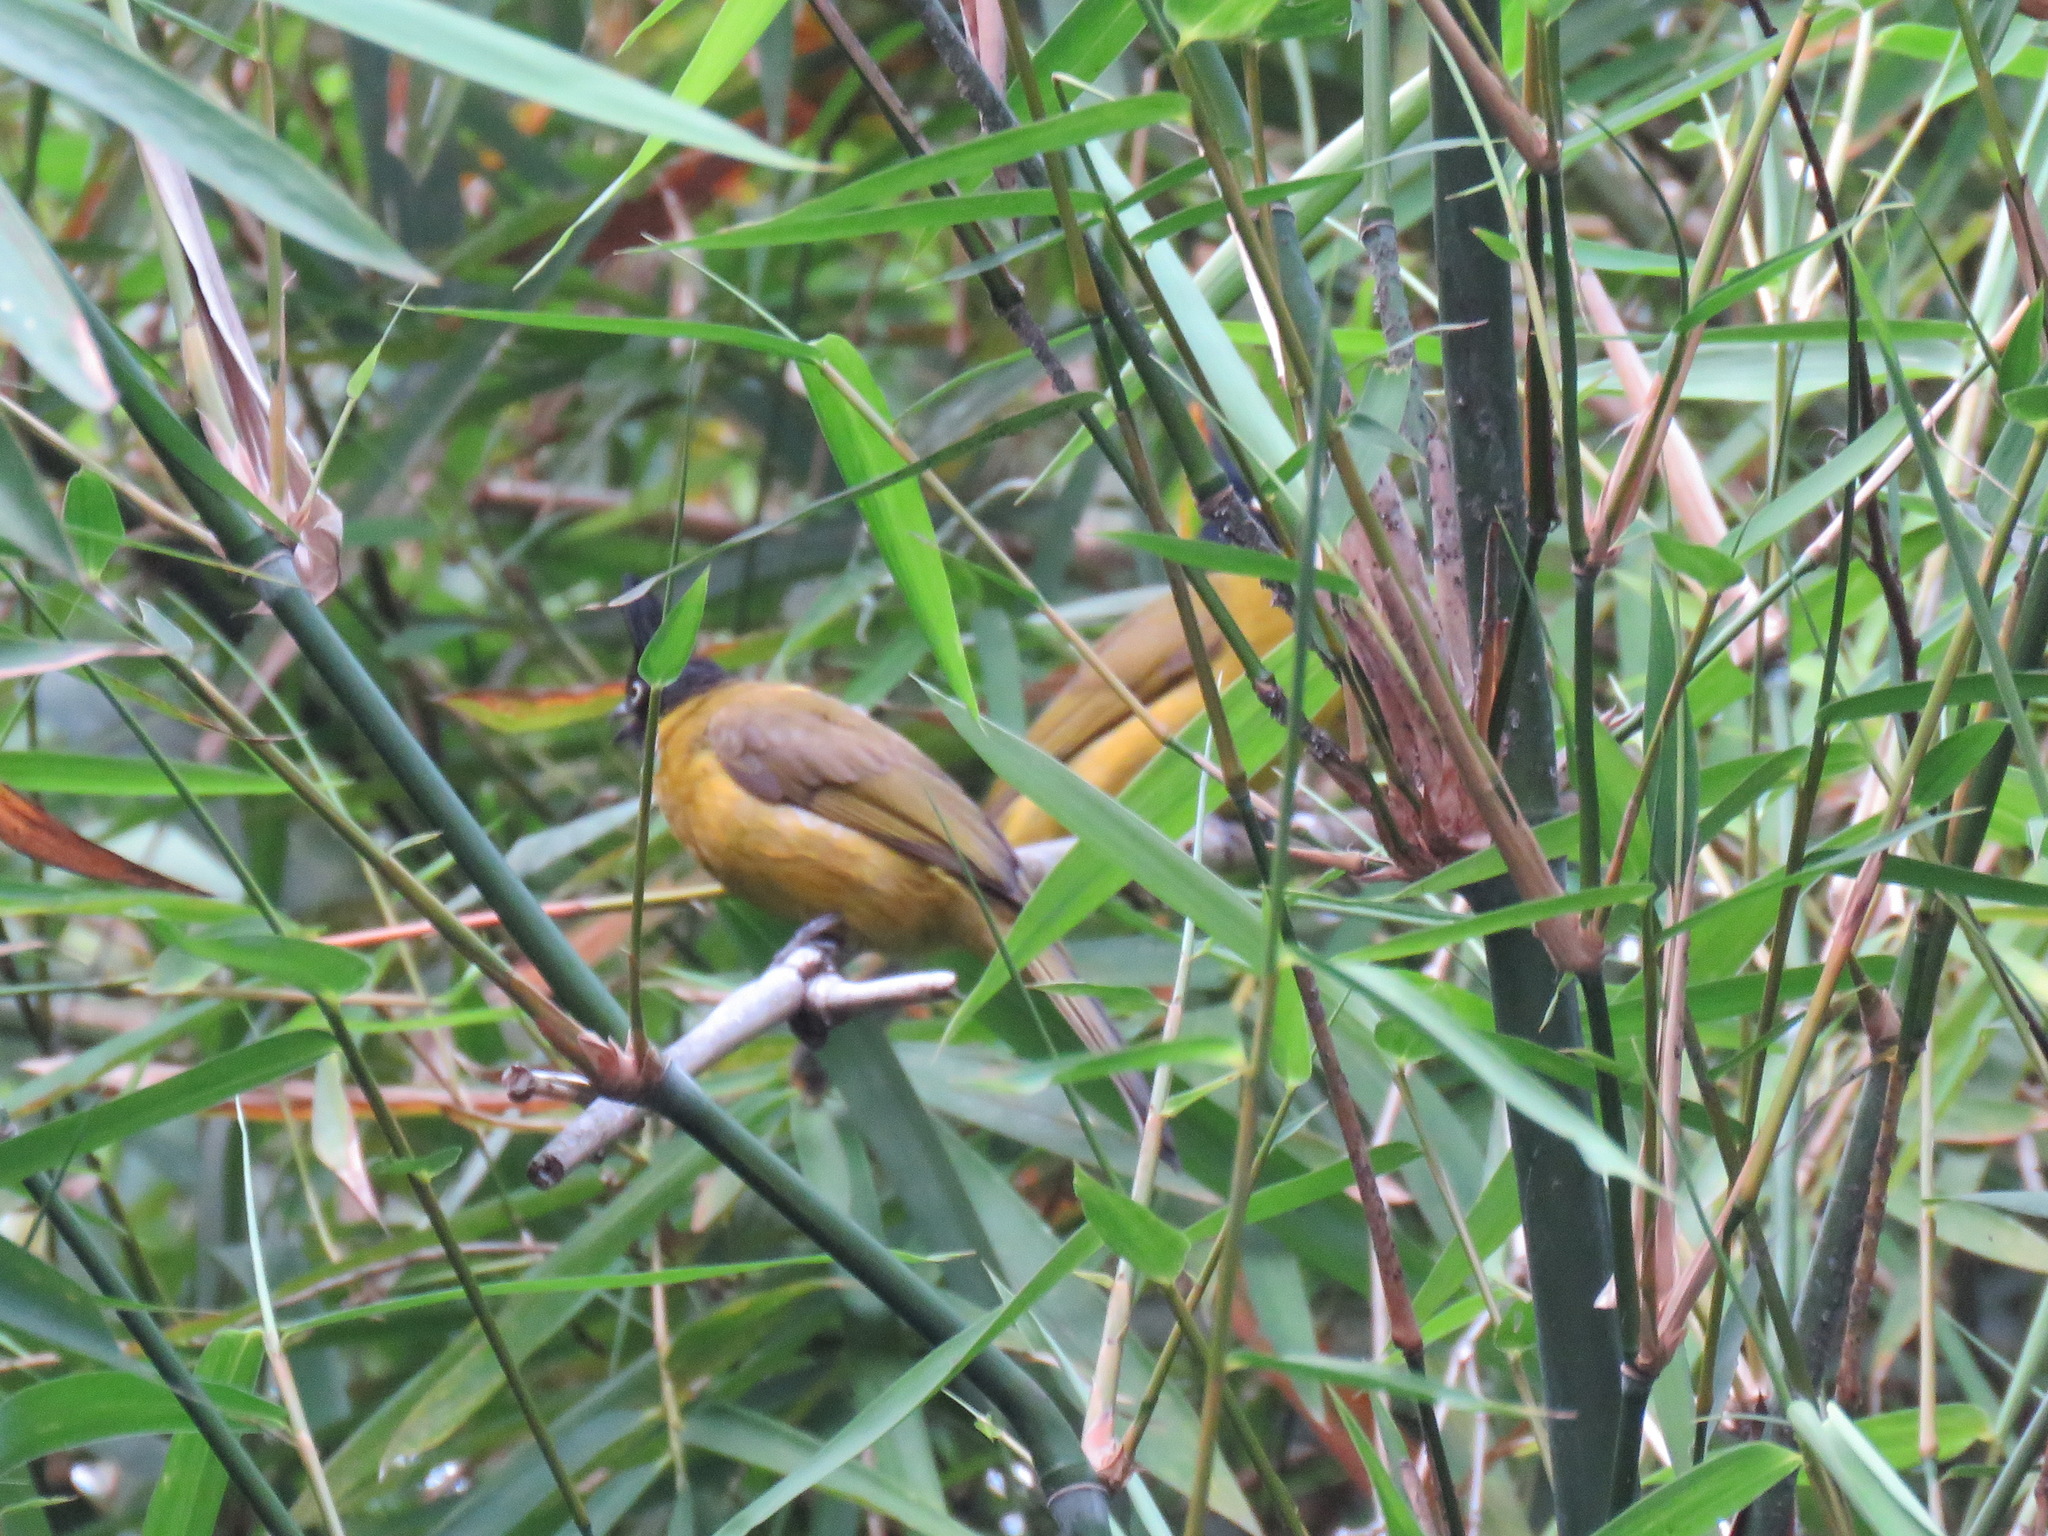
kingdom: Animalia
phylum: Chordata
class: Aves
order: Passeriformes
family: Pycnonotidae
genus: Pycnonotus
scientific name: Pycnonotus flaviventris
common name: Black-crested bulbul
